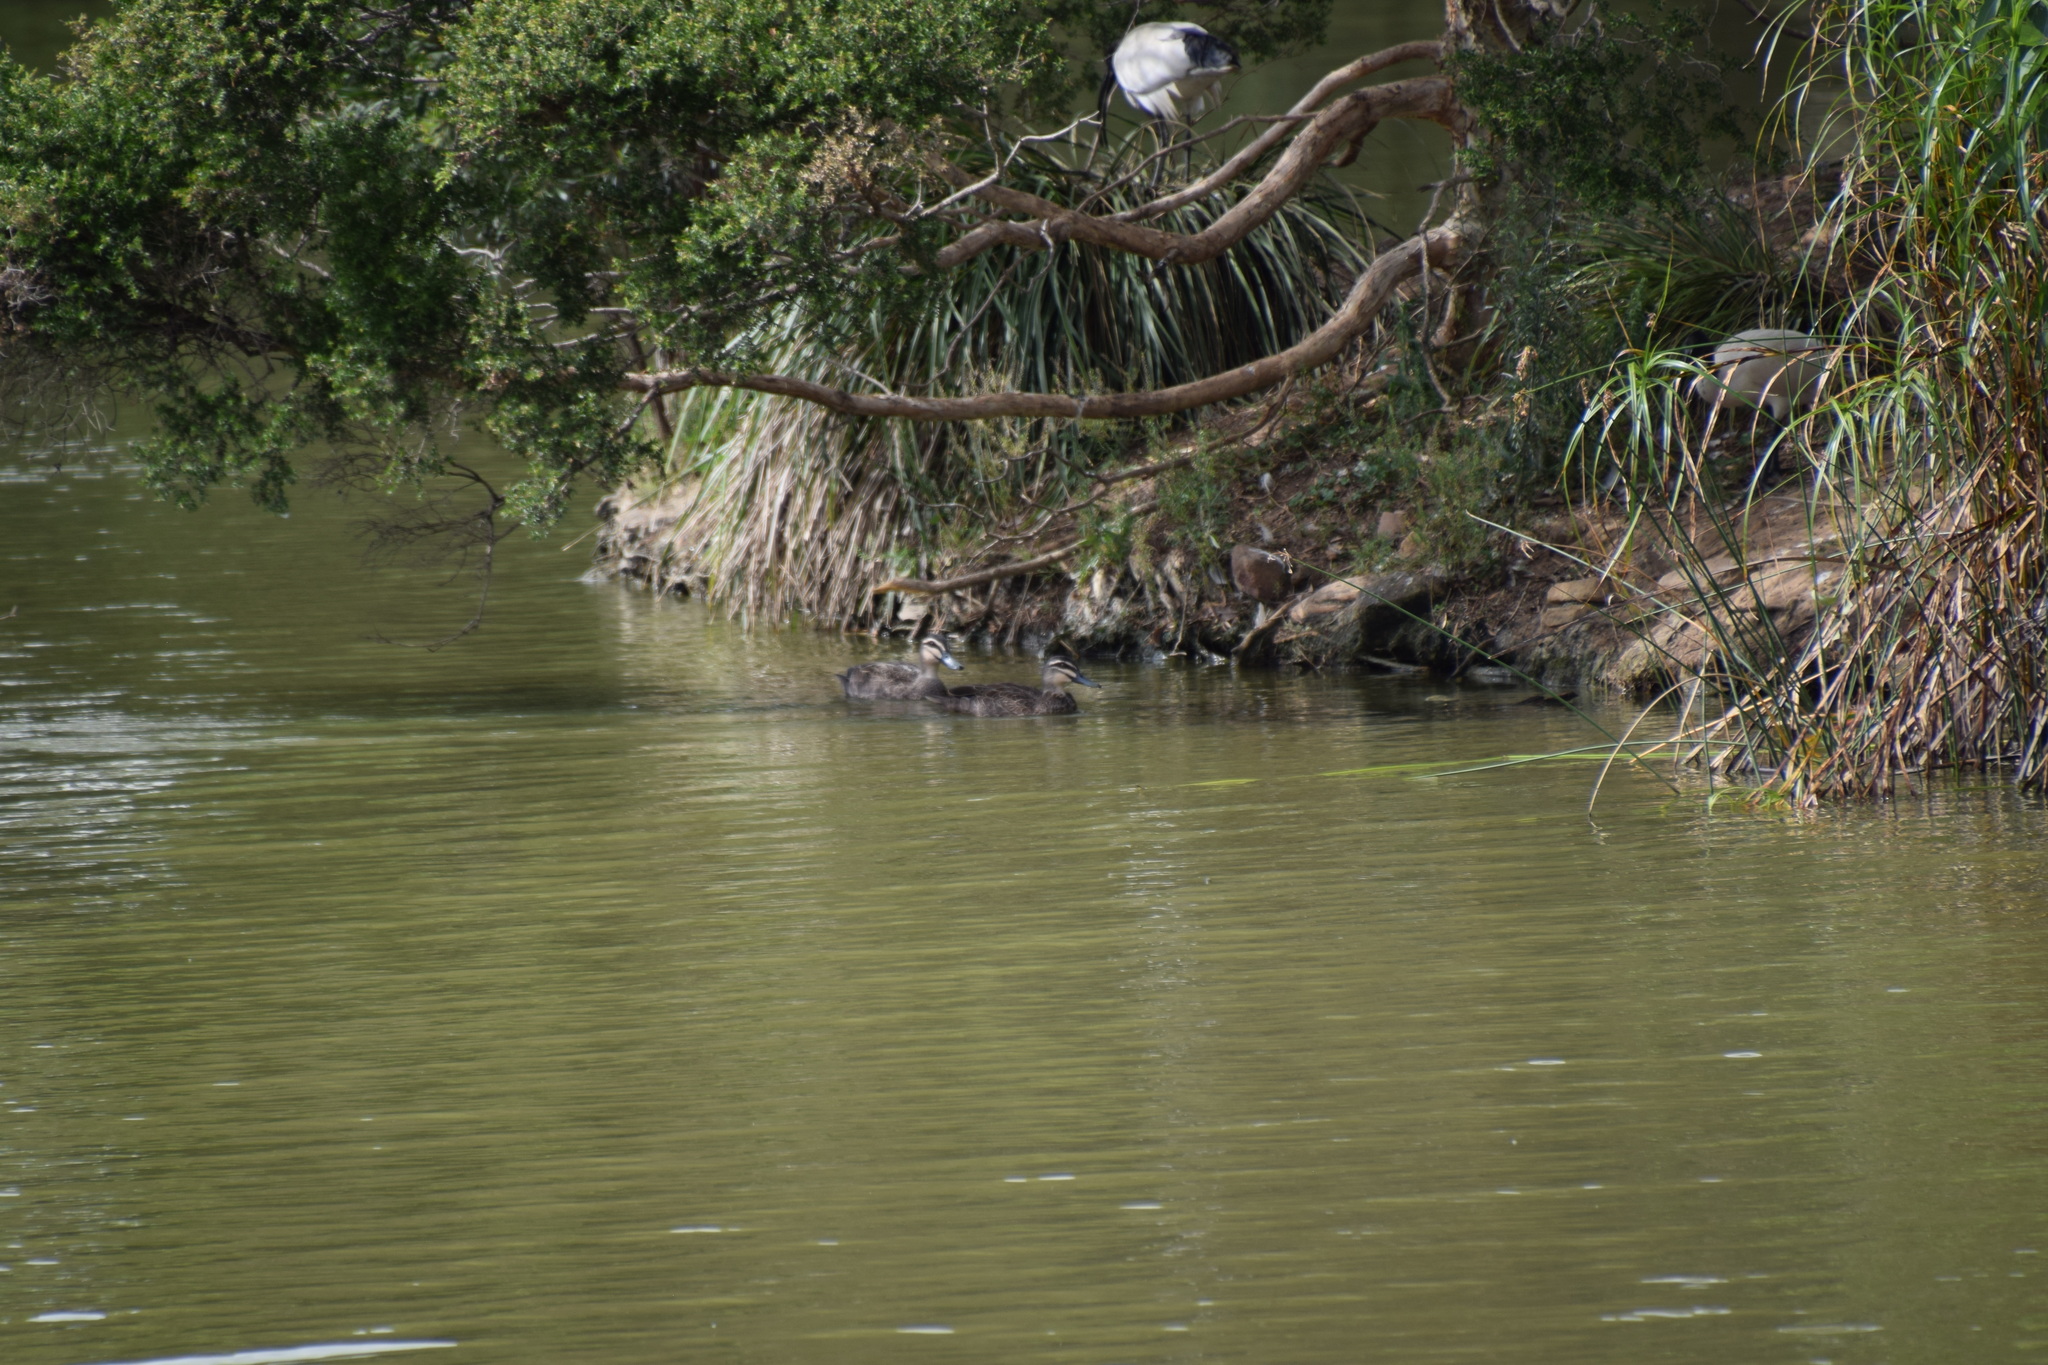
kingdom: Animalia
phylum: Chordata
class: Aves
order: Anseriformes
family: Anatidae
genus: Anas
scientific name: Anas superciliosa
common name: Pacific black duck
